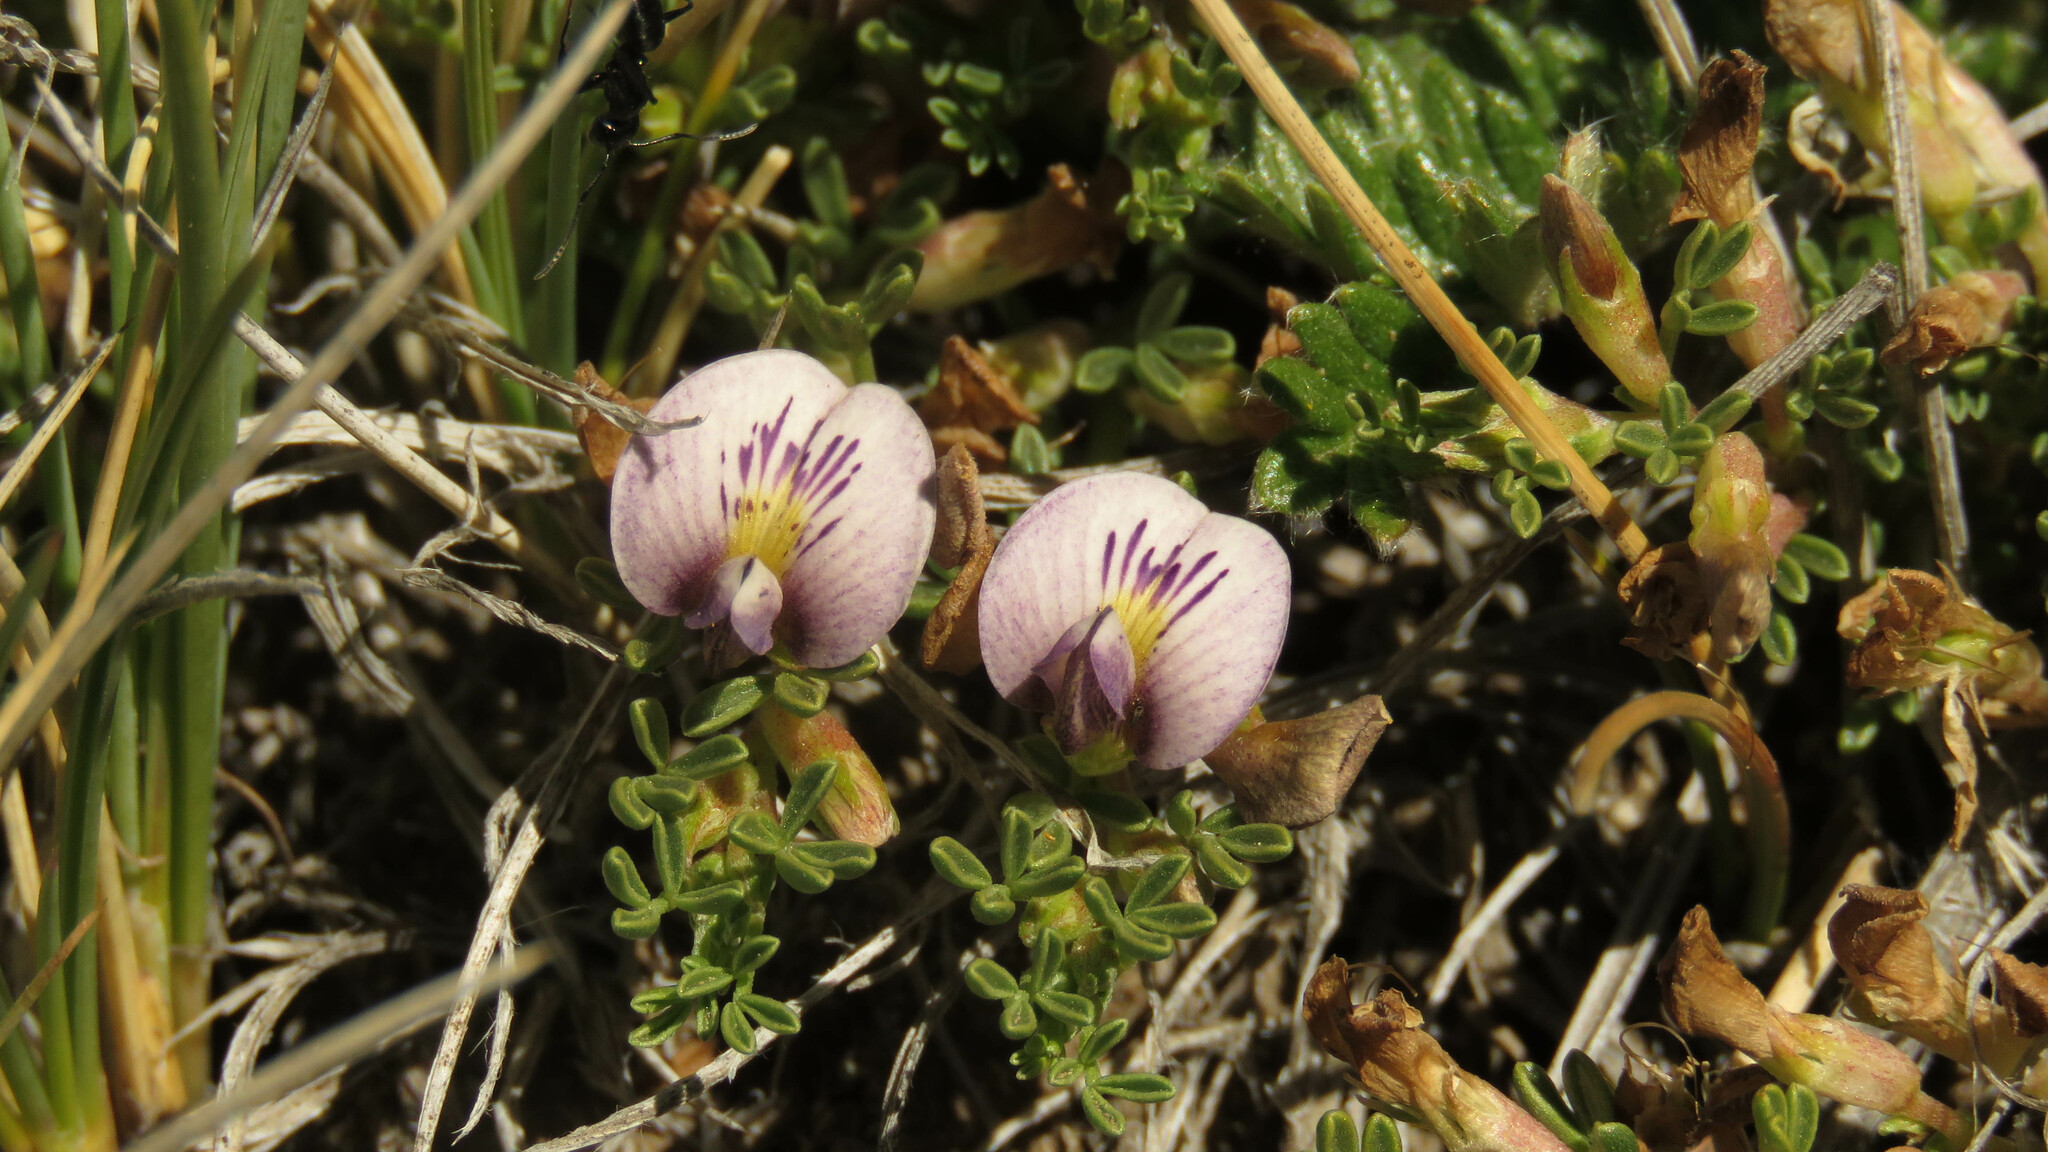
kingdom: Plantae
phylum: Tracheophyta
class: Magnoliopsida
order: Fabales
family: Fabaceae
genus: Adesmia
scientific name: Adesmia parvifolia
